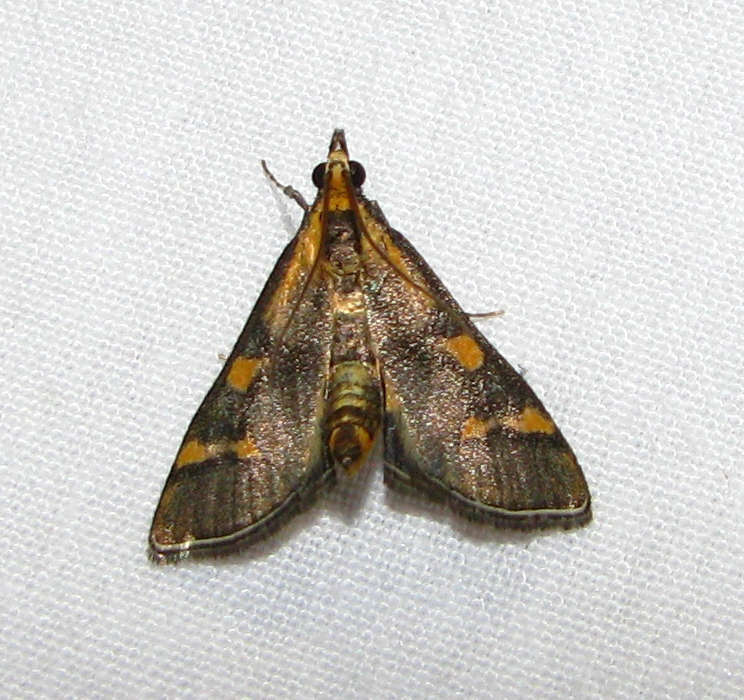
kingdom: Animalia
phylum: Arthropoda
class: Insecta
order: Lepidoptera
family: Crambidae
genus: Metallarcha
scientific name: Metallarcha diplochrysa
